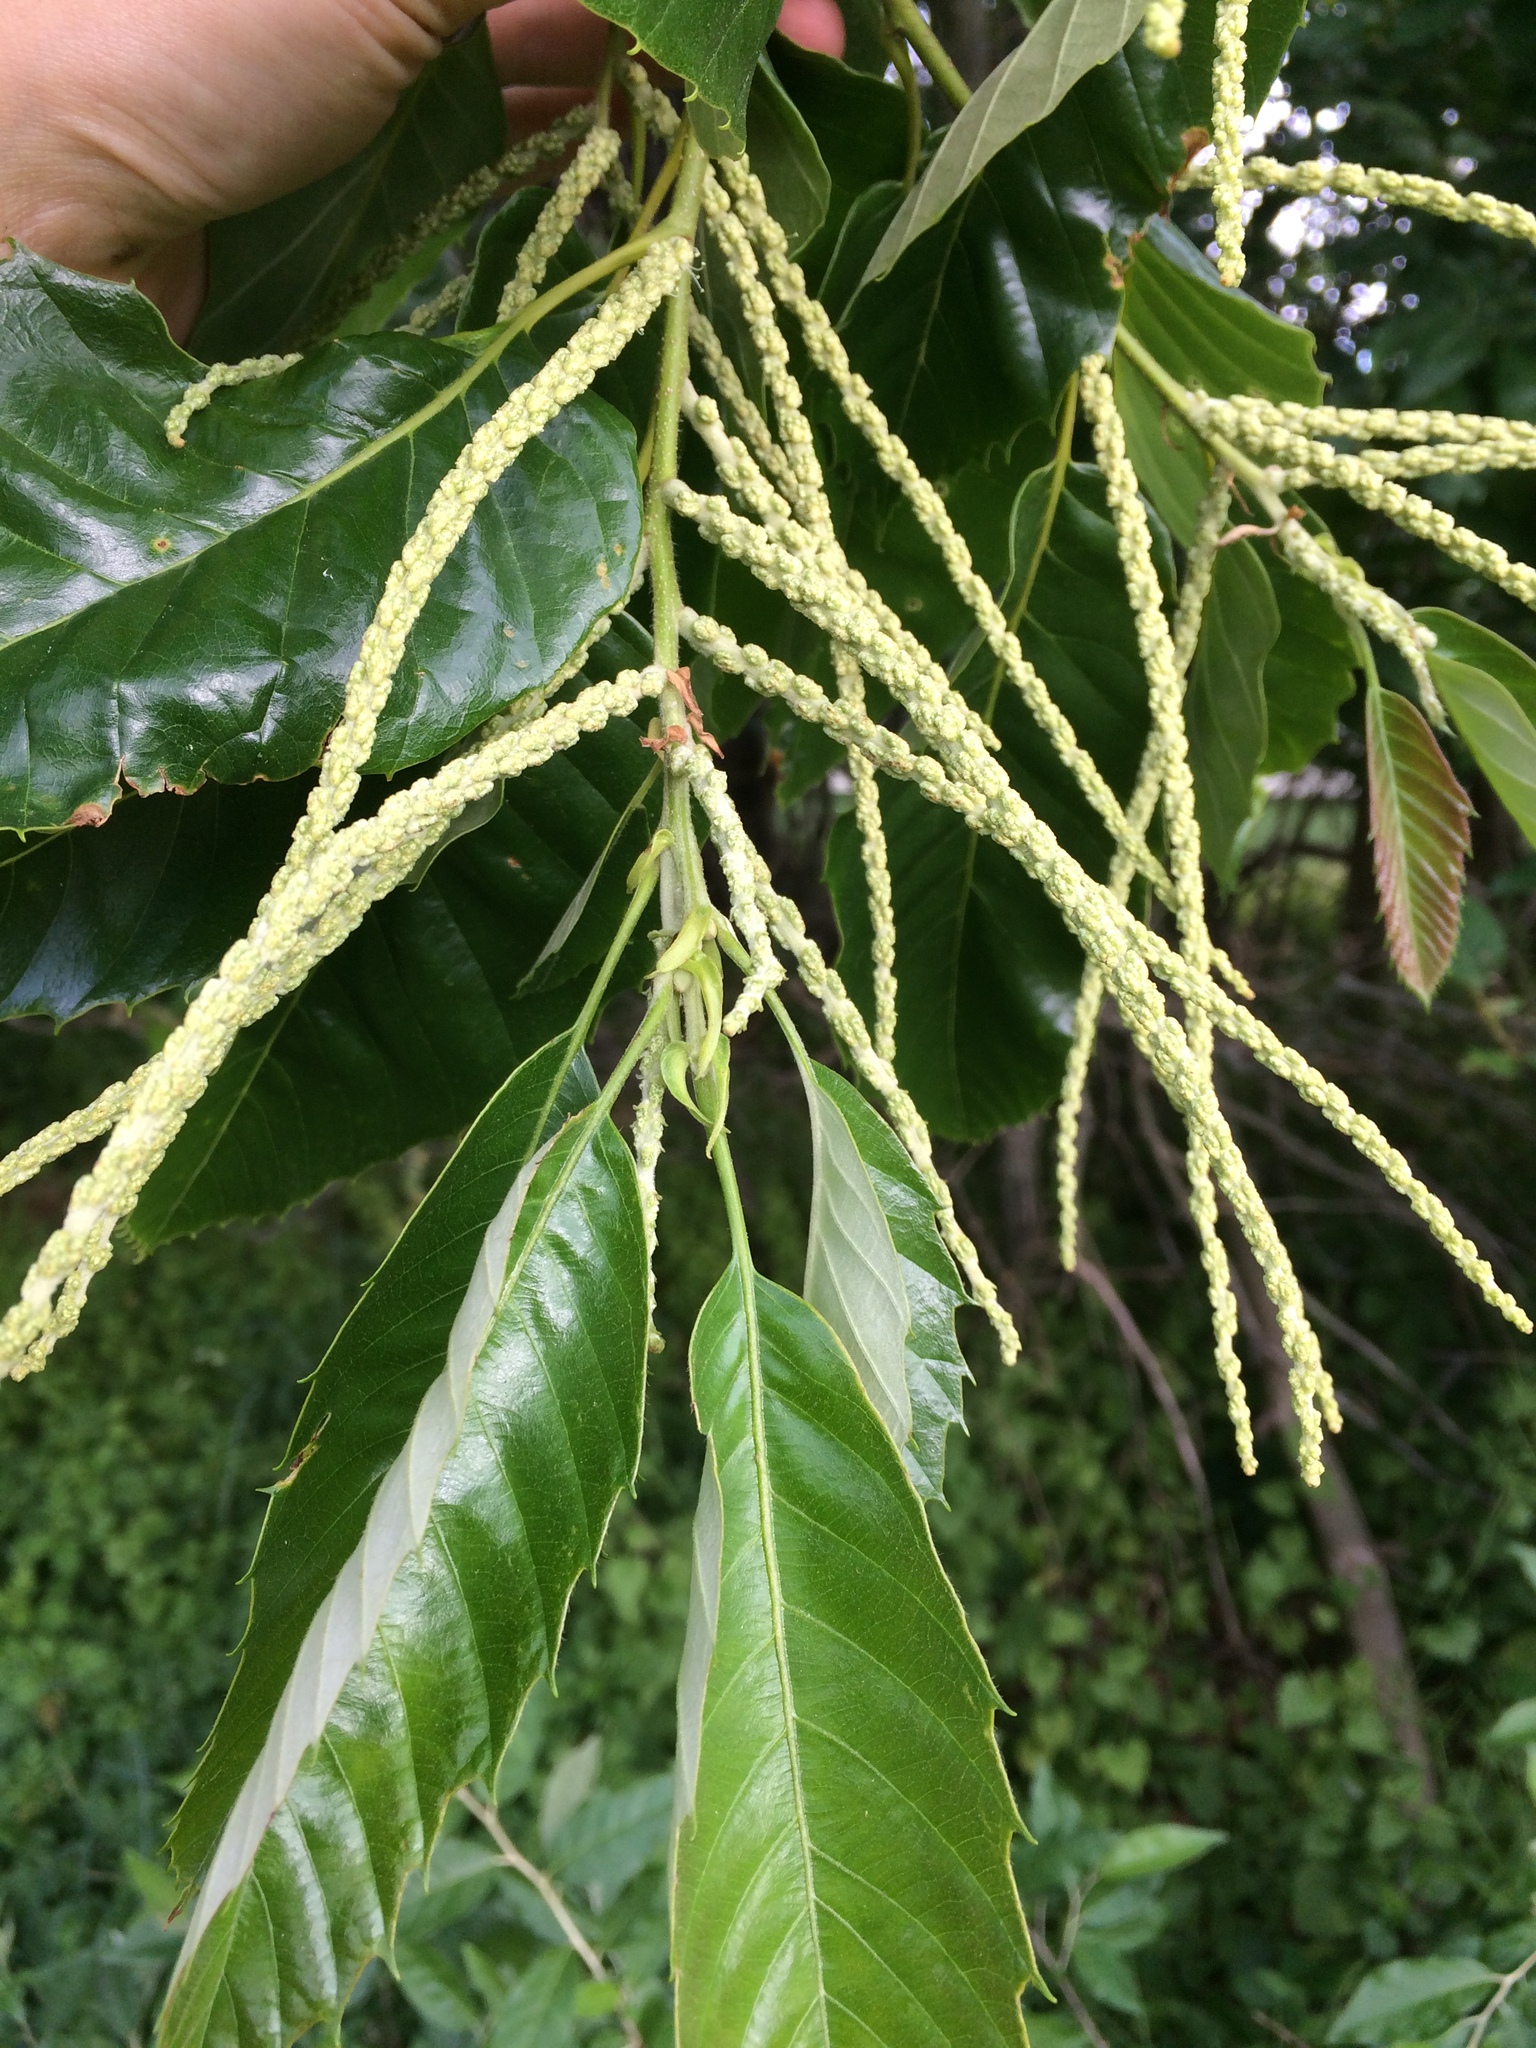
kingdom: Plantae
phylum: Tracheophyta
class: Magnoliopsida
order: Fagales
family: Fagaceae
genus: Castanea
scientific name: Castanea mollissima
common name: Chinese chestnut
